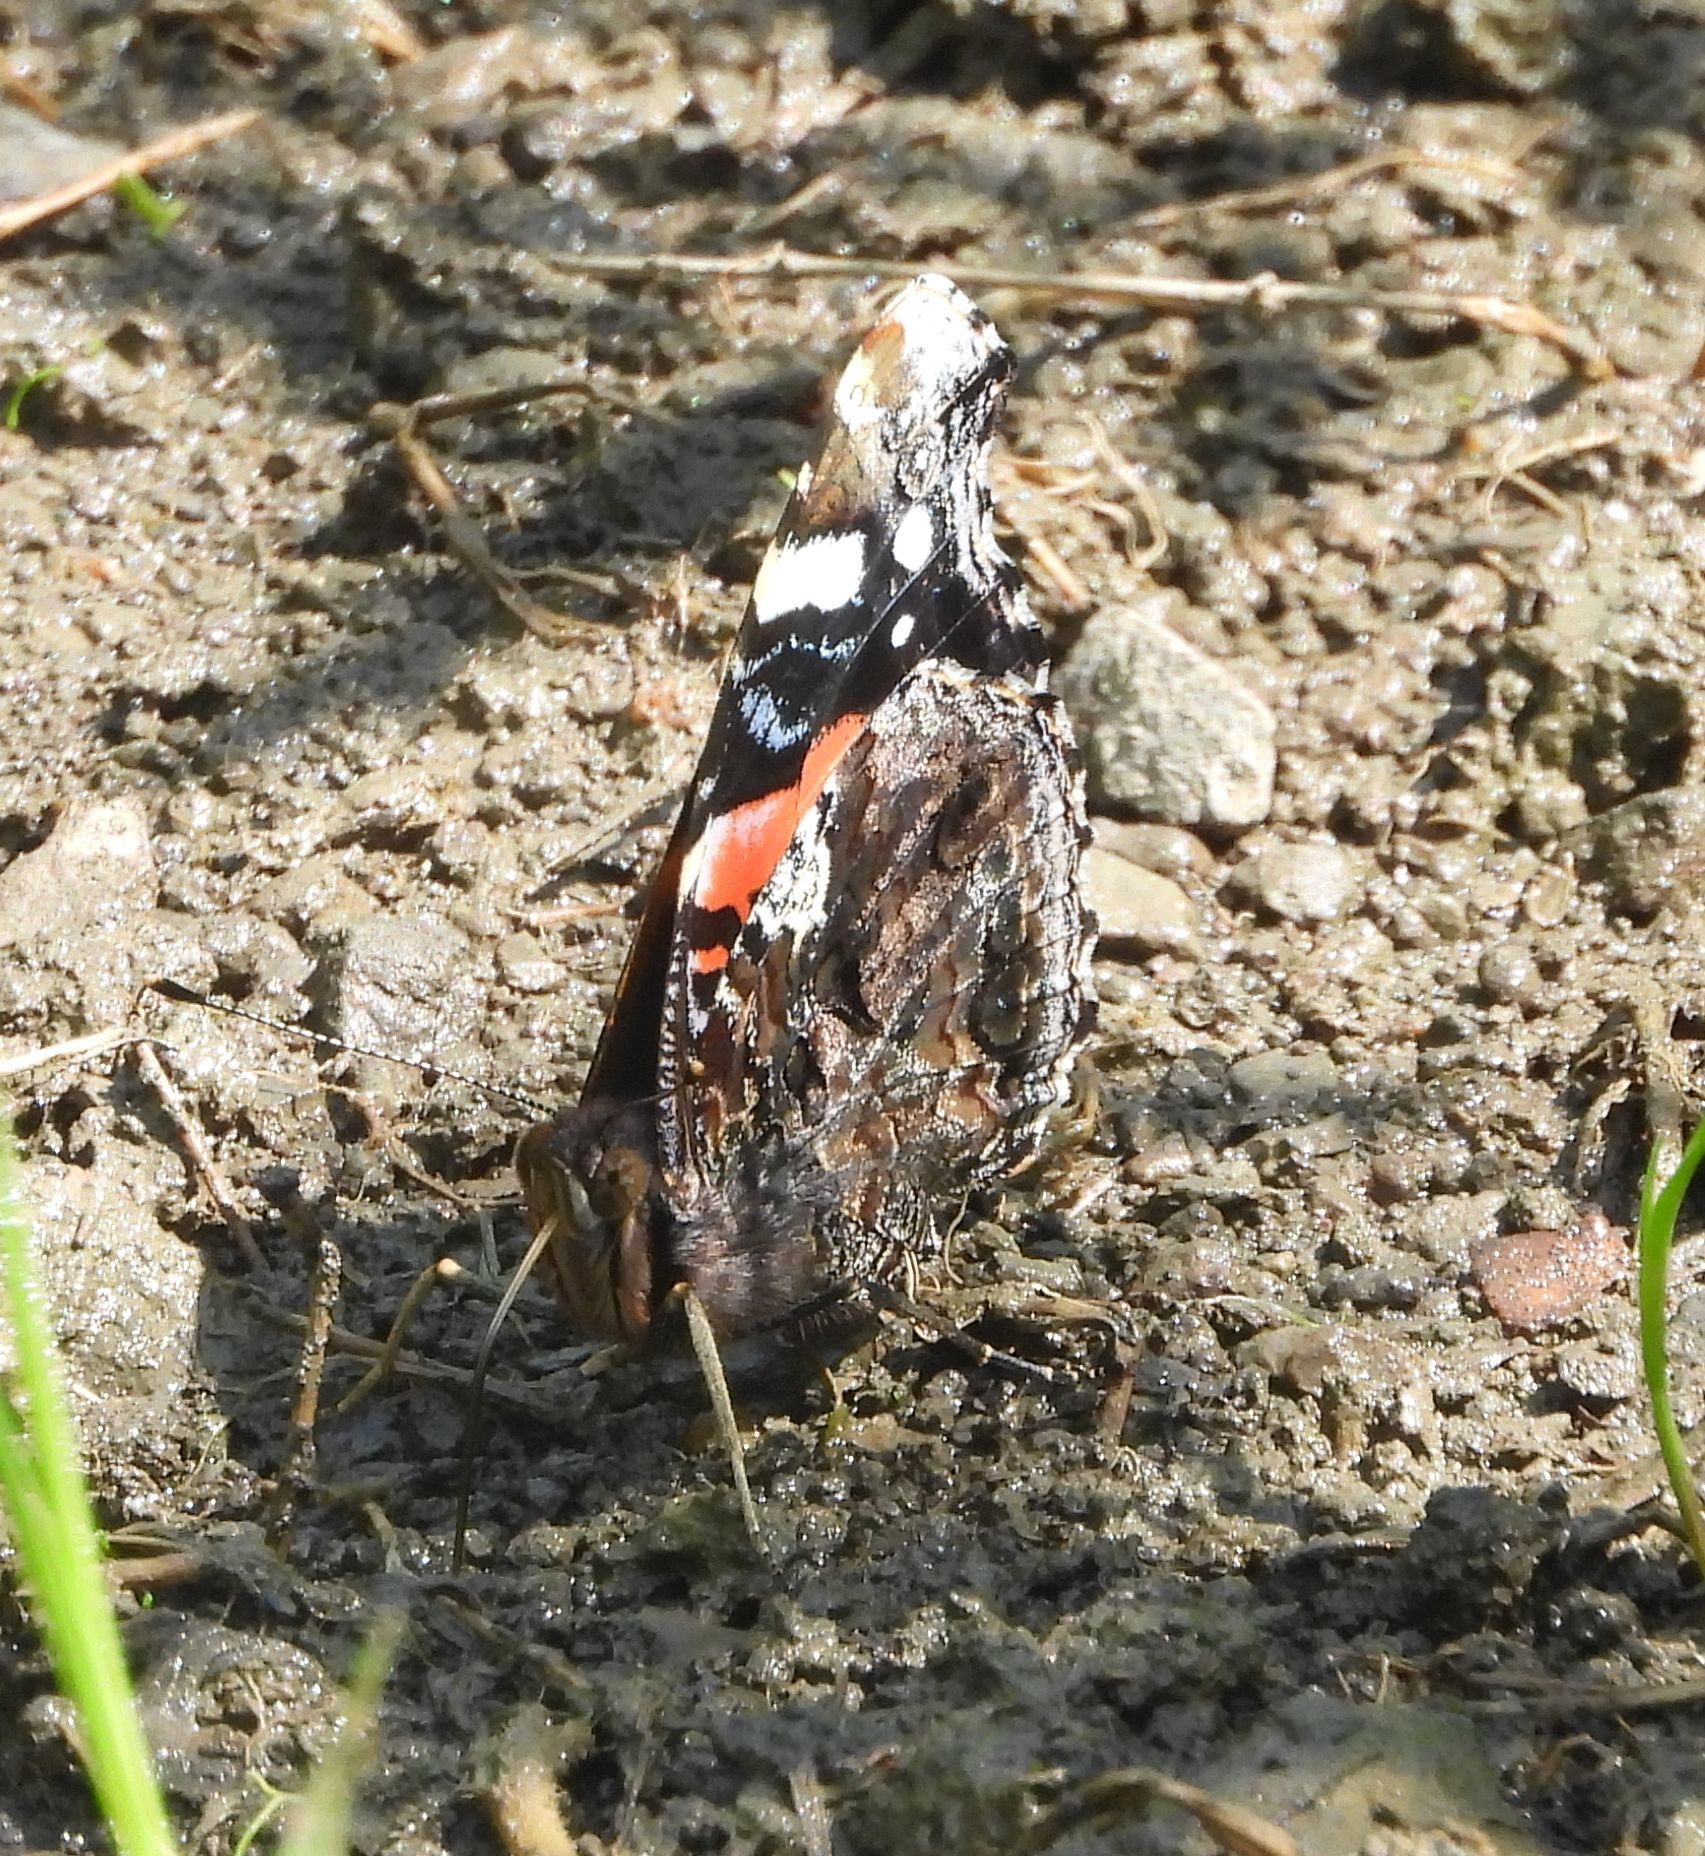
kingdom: Animalia
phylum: Arthropoda
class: Insecta
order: Lepidoptera
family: Nymphalidae
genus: Vanessa
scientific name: Vanessa atalanta
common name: Red admiral
